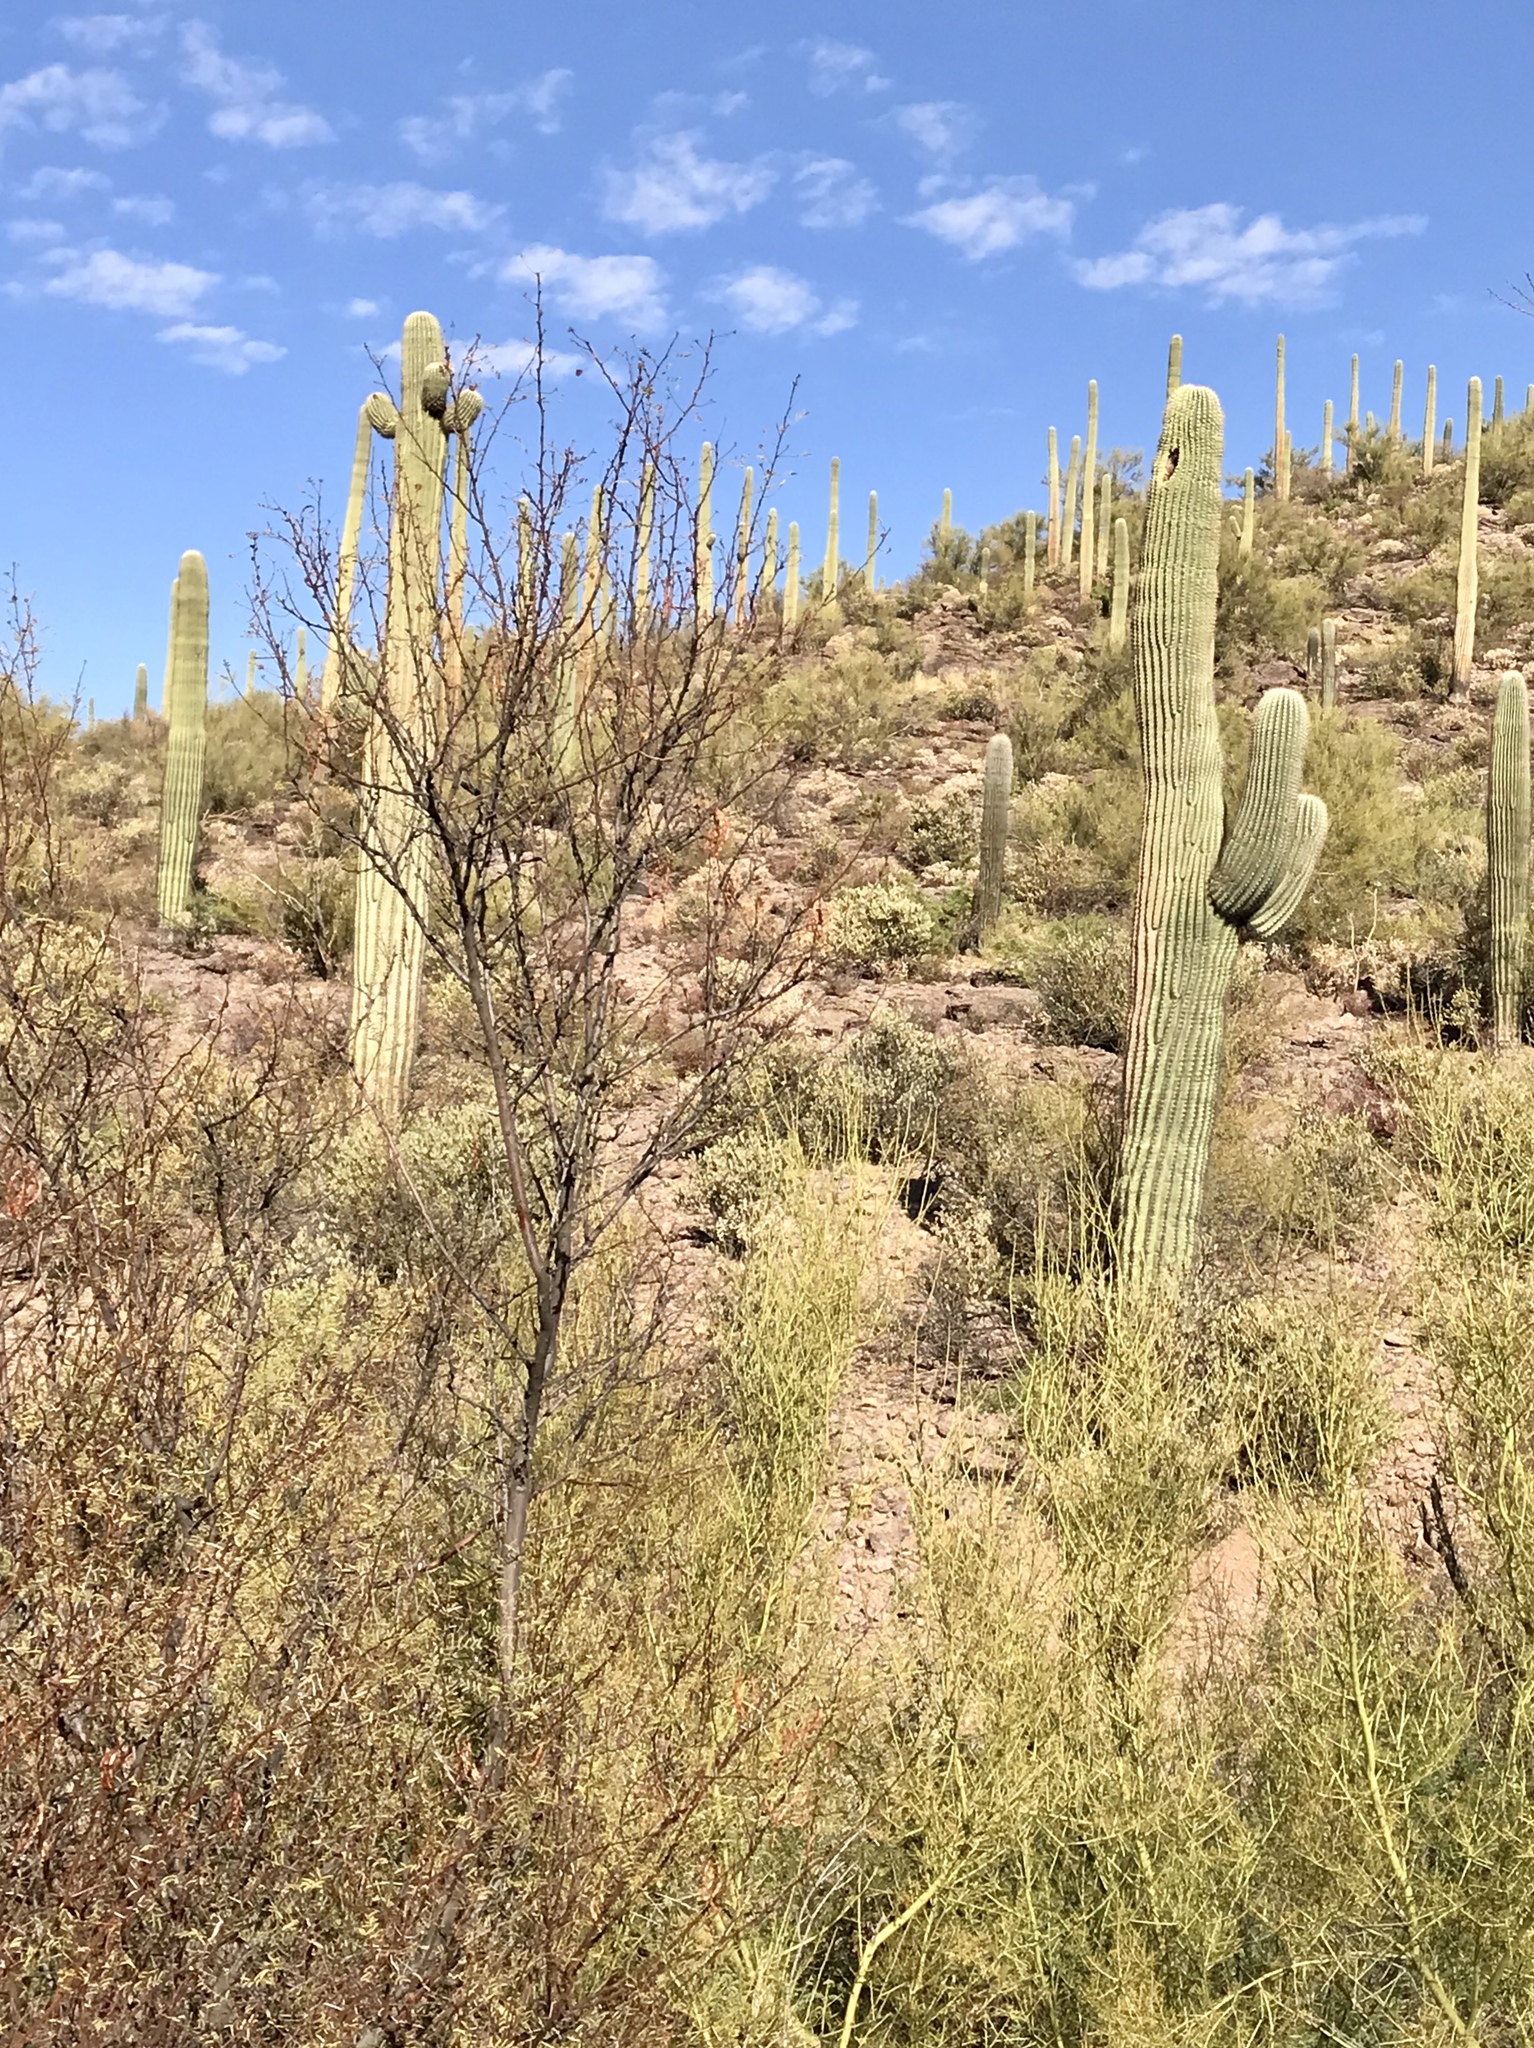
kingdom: Plantae
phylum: Tracheophyta
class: Magnoliopsida
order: Caryophyllales
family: Cactaceae
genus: Carnegiea
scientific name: Carnegiea gigantea
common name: Saguaro
